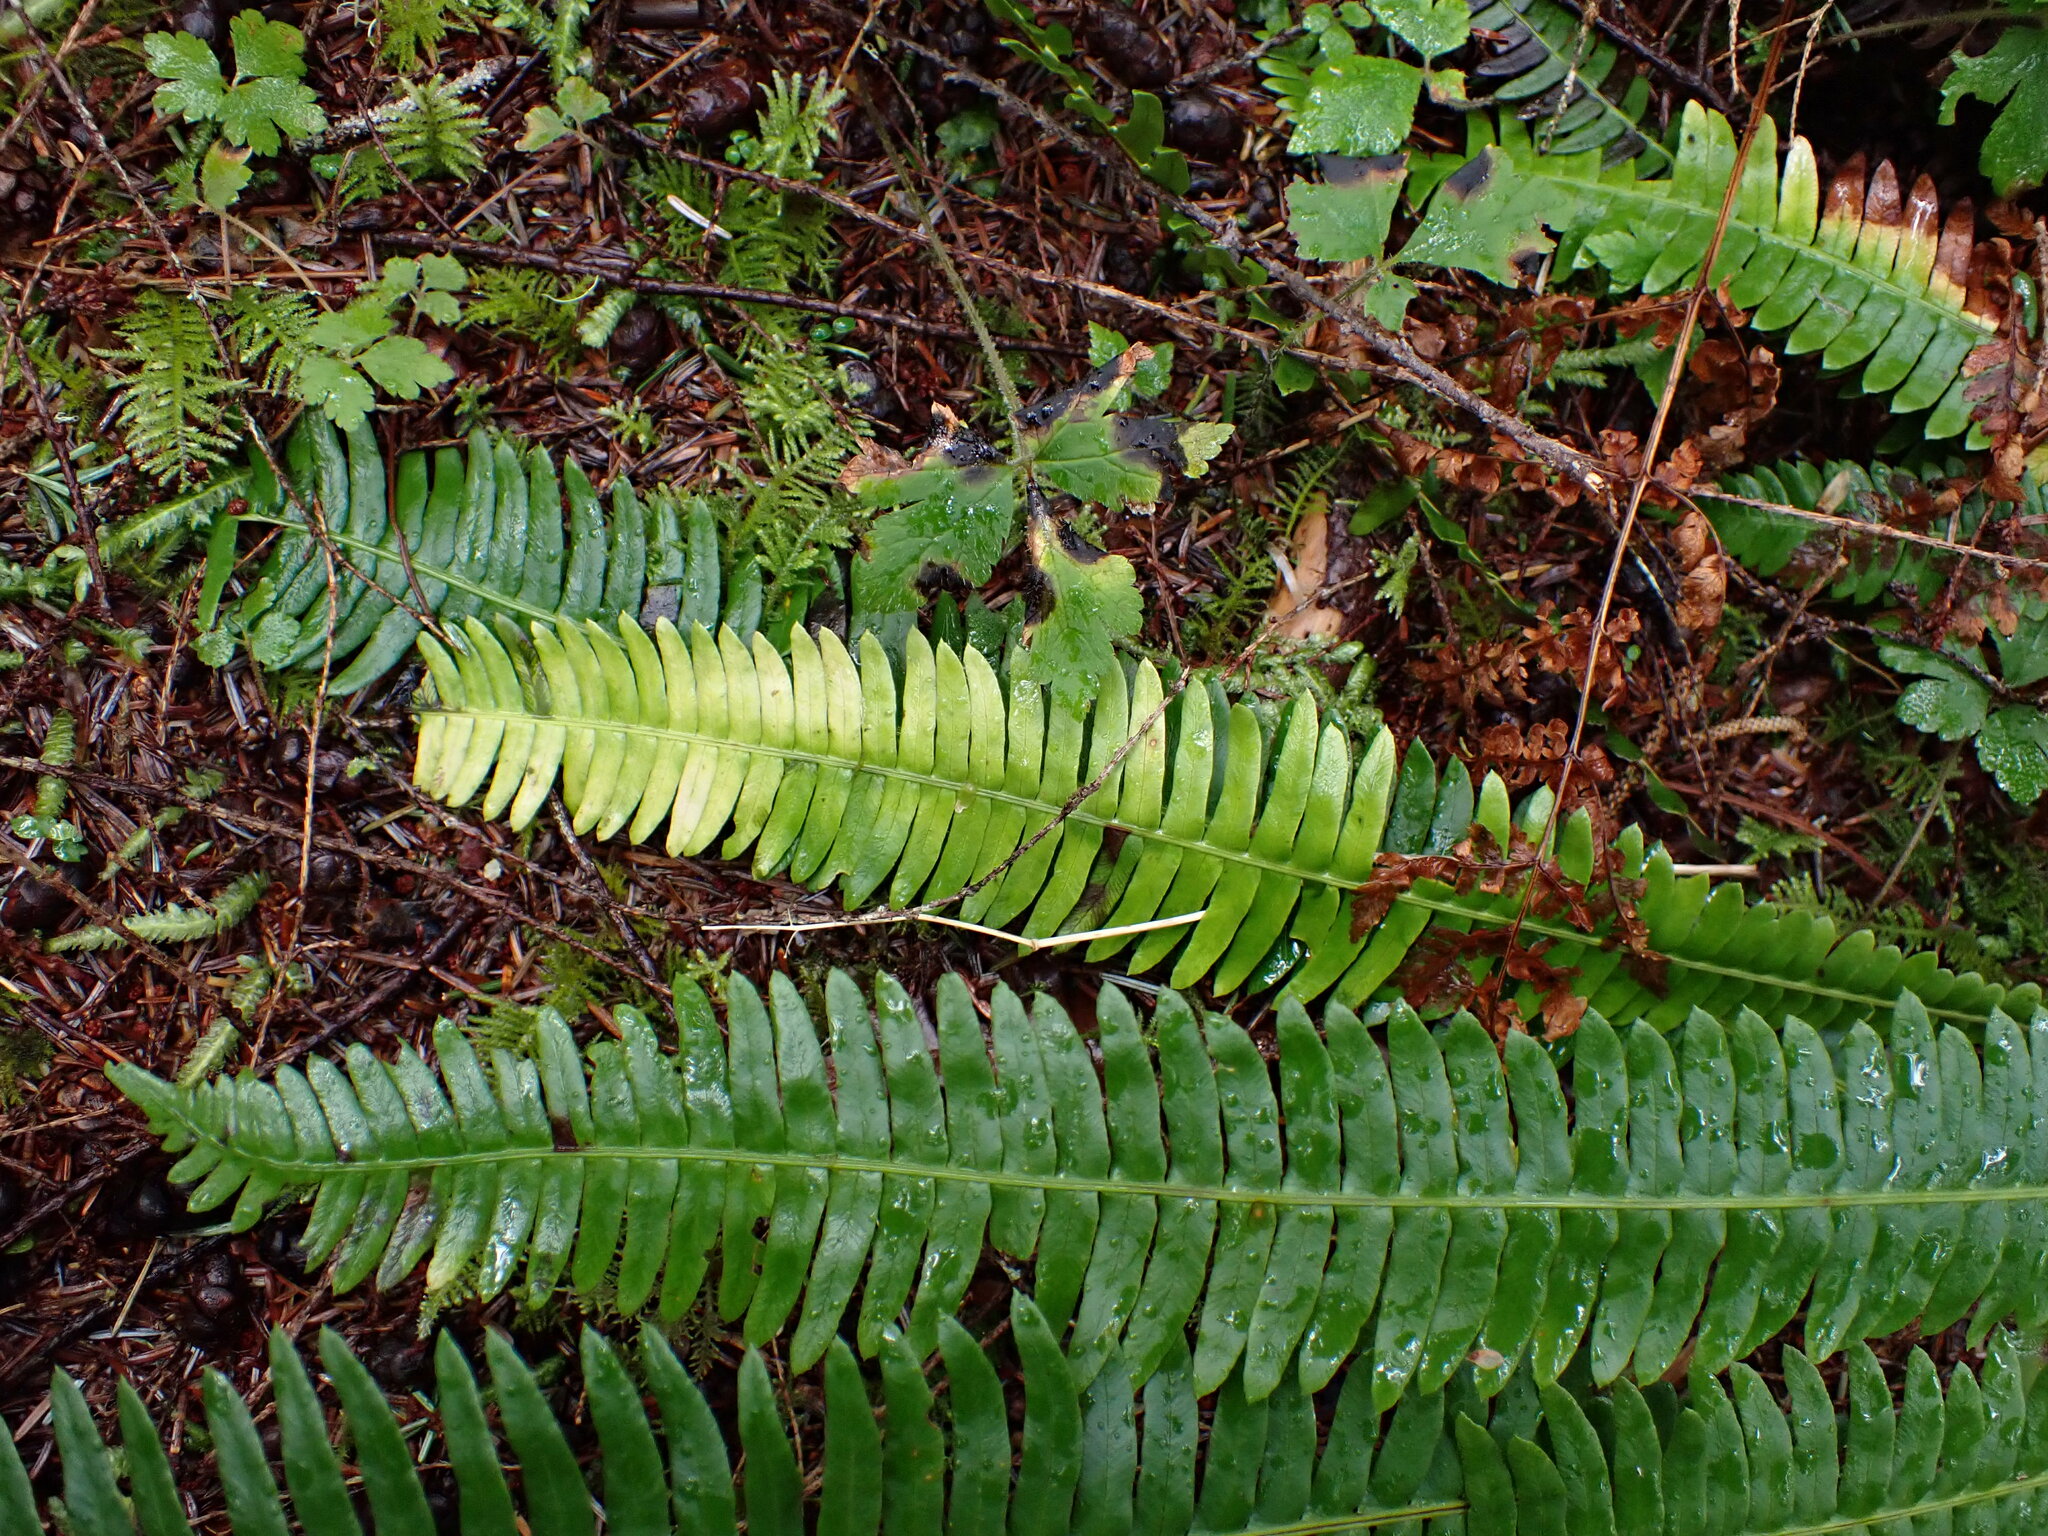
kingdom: Plantae
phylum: Tracheophyta
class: Polypodiopsida
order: Polypodiales
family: Blechnaceae
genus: Struthiopteris
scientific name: Struthiopteris spicant
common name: Deer fern
